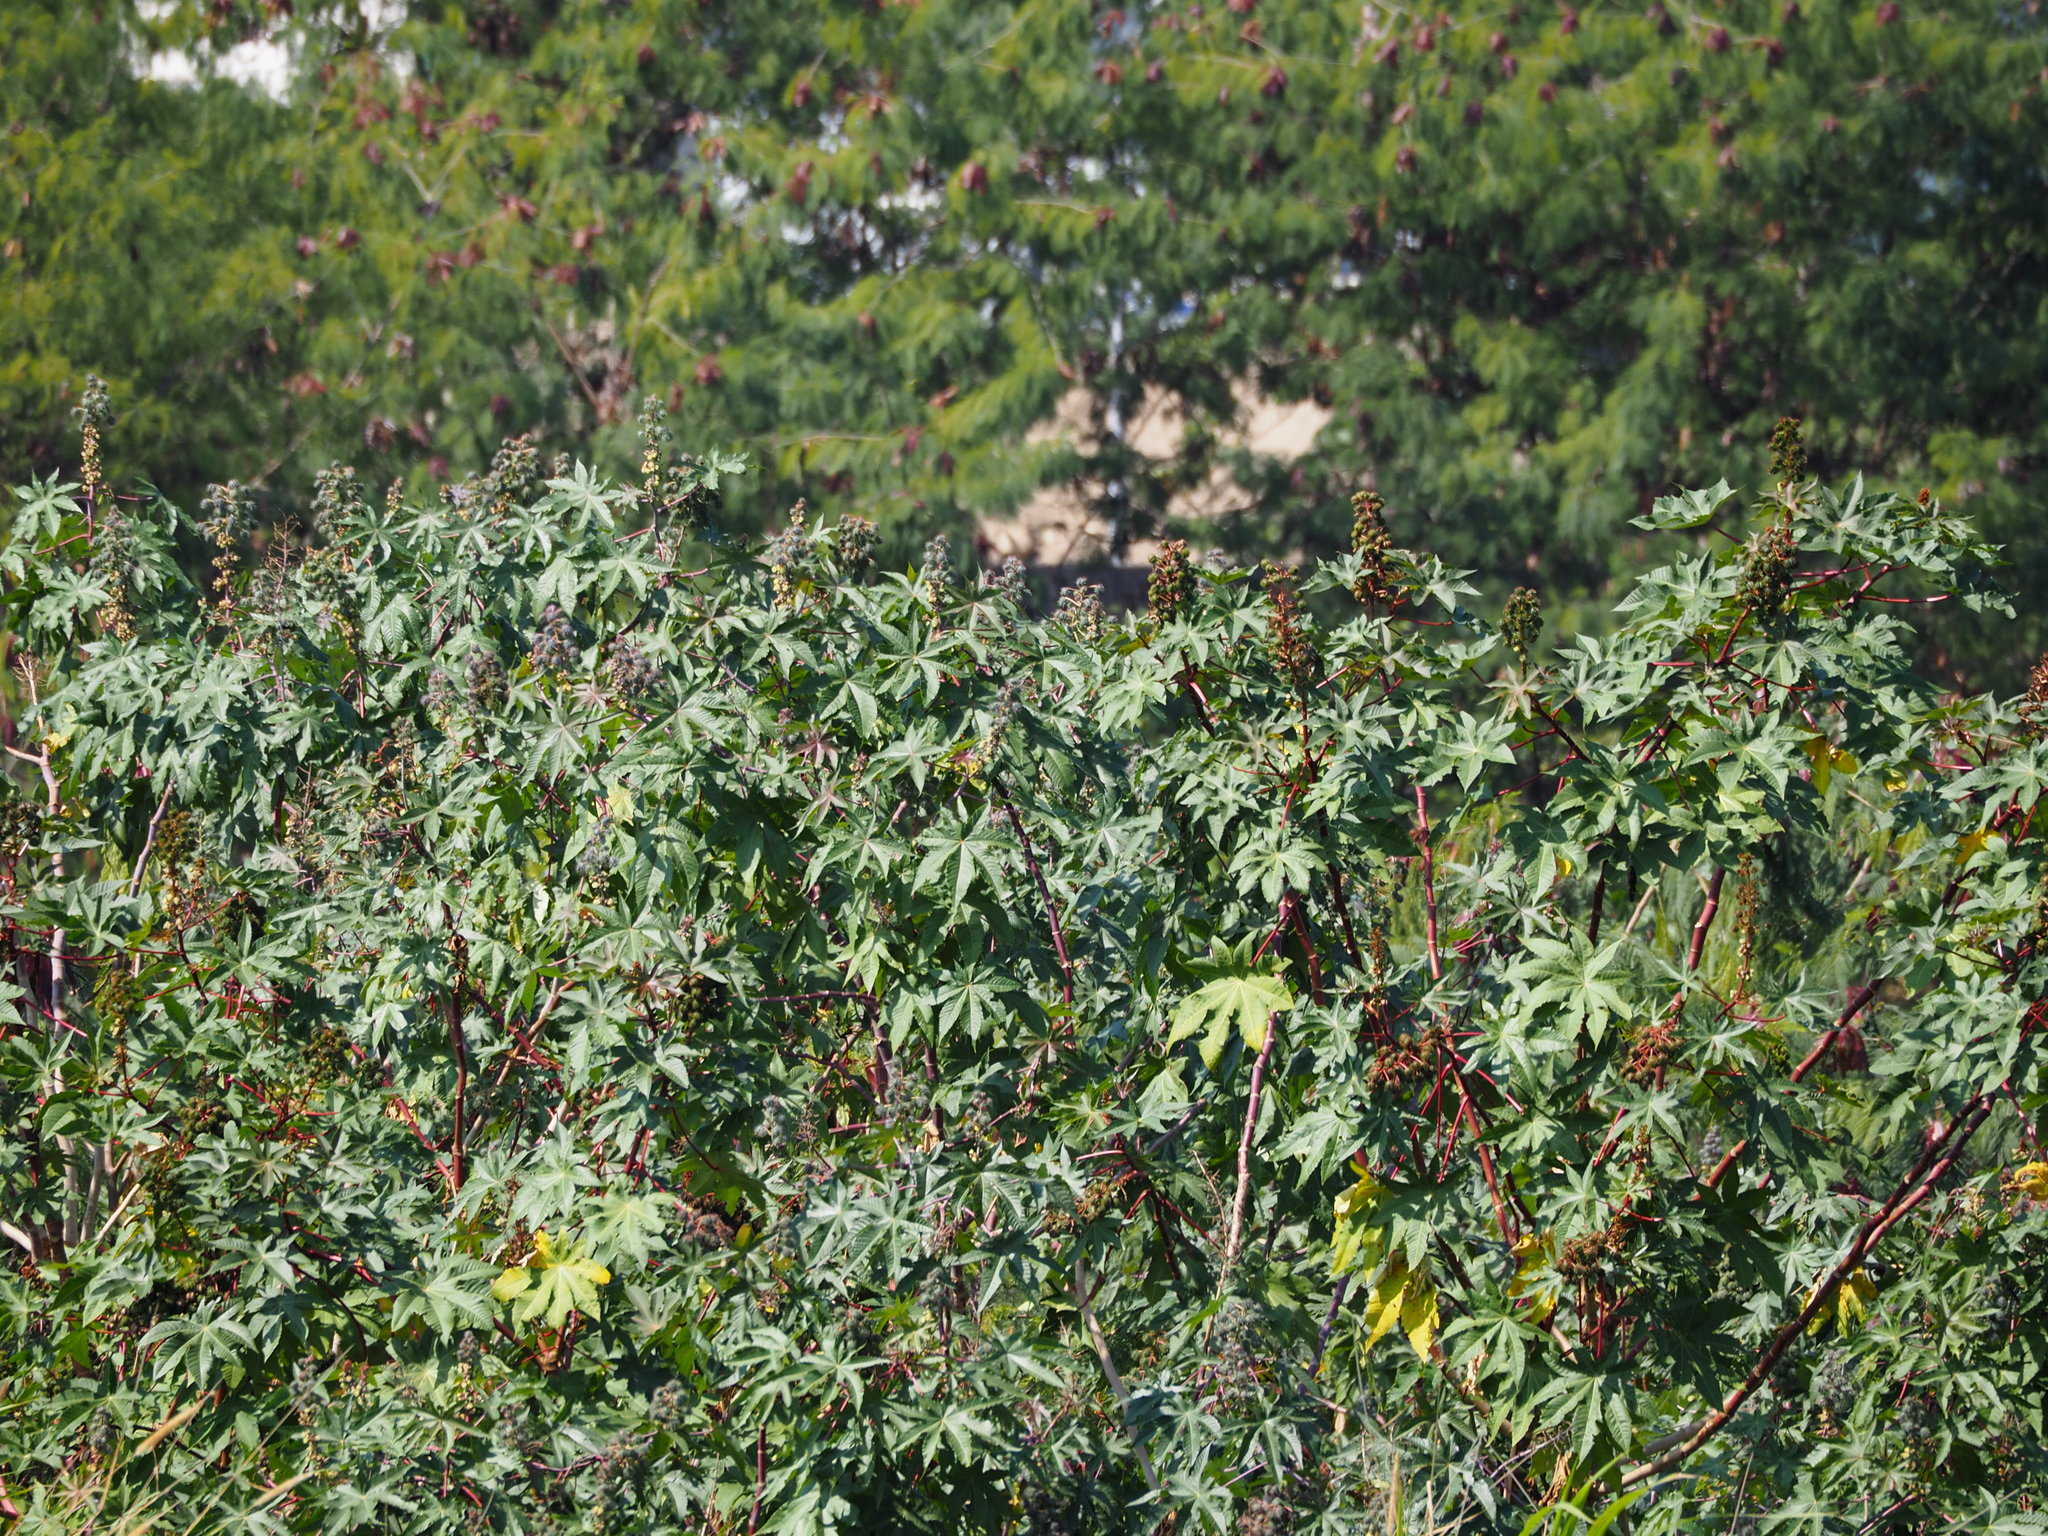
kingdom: Plantae
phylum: Tracheophyta
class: Magnoliopsida
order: Malpighiales
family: Euphorbiaceae
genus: Ricinus
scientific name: Ricinus communis
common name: Castor-oil-plant
